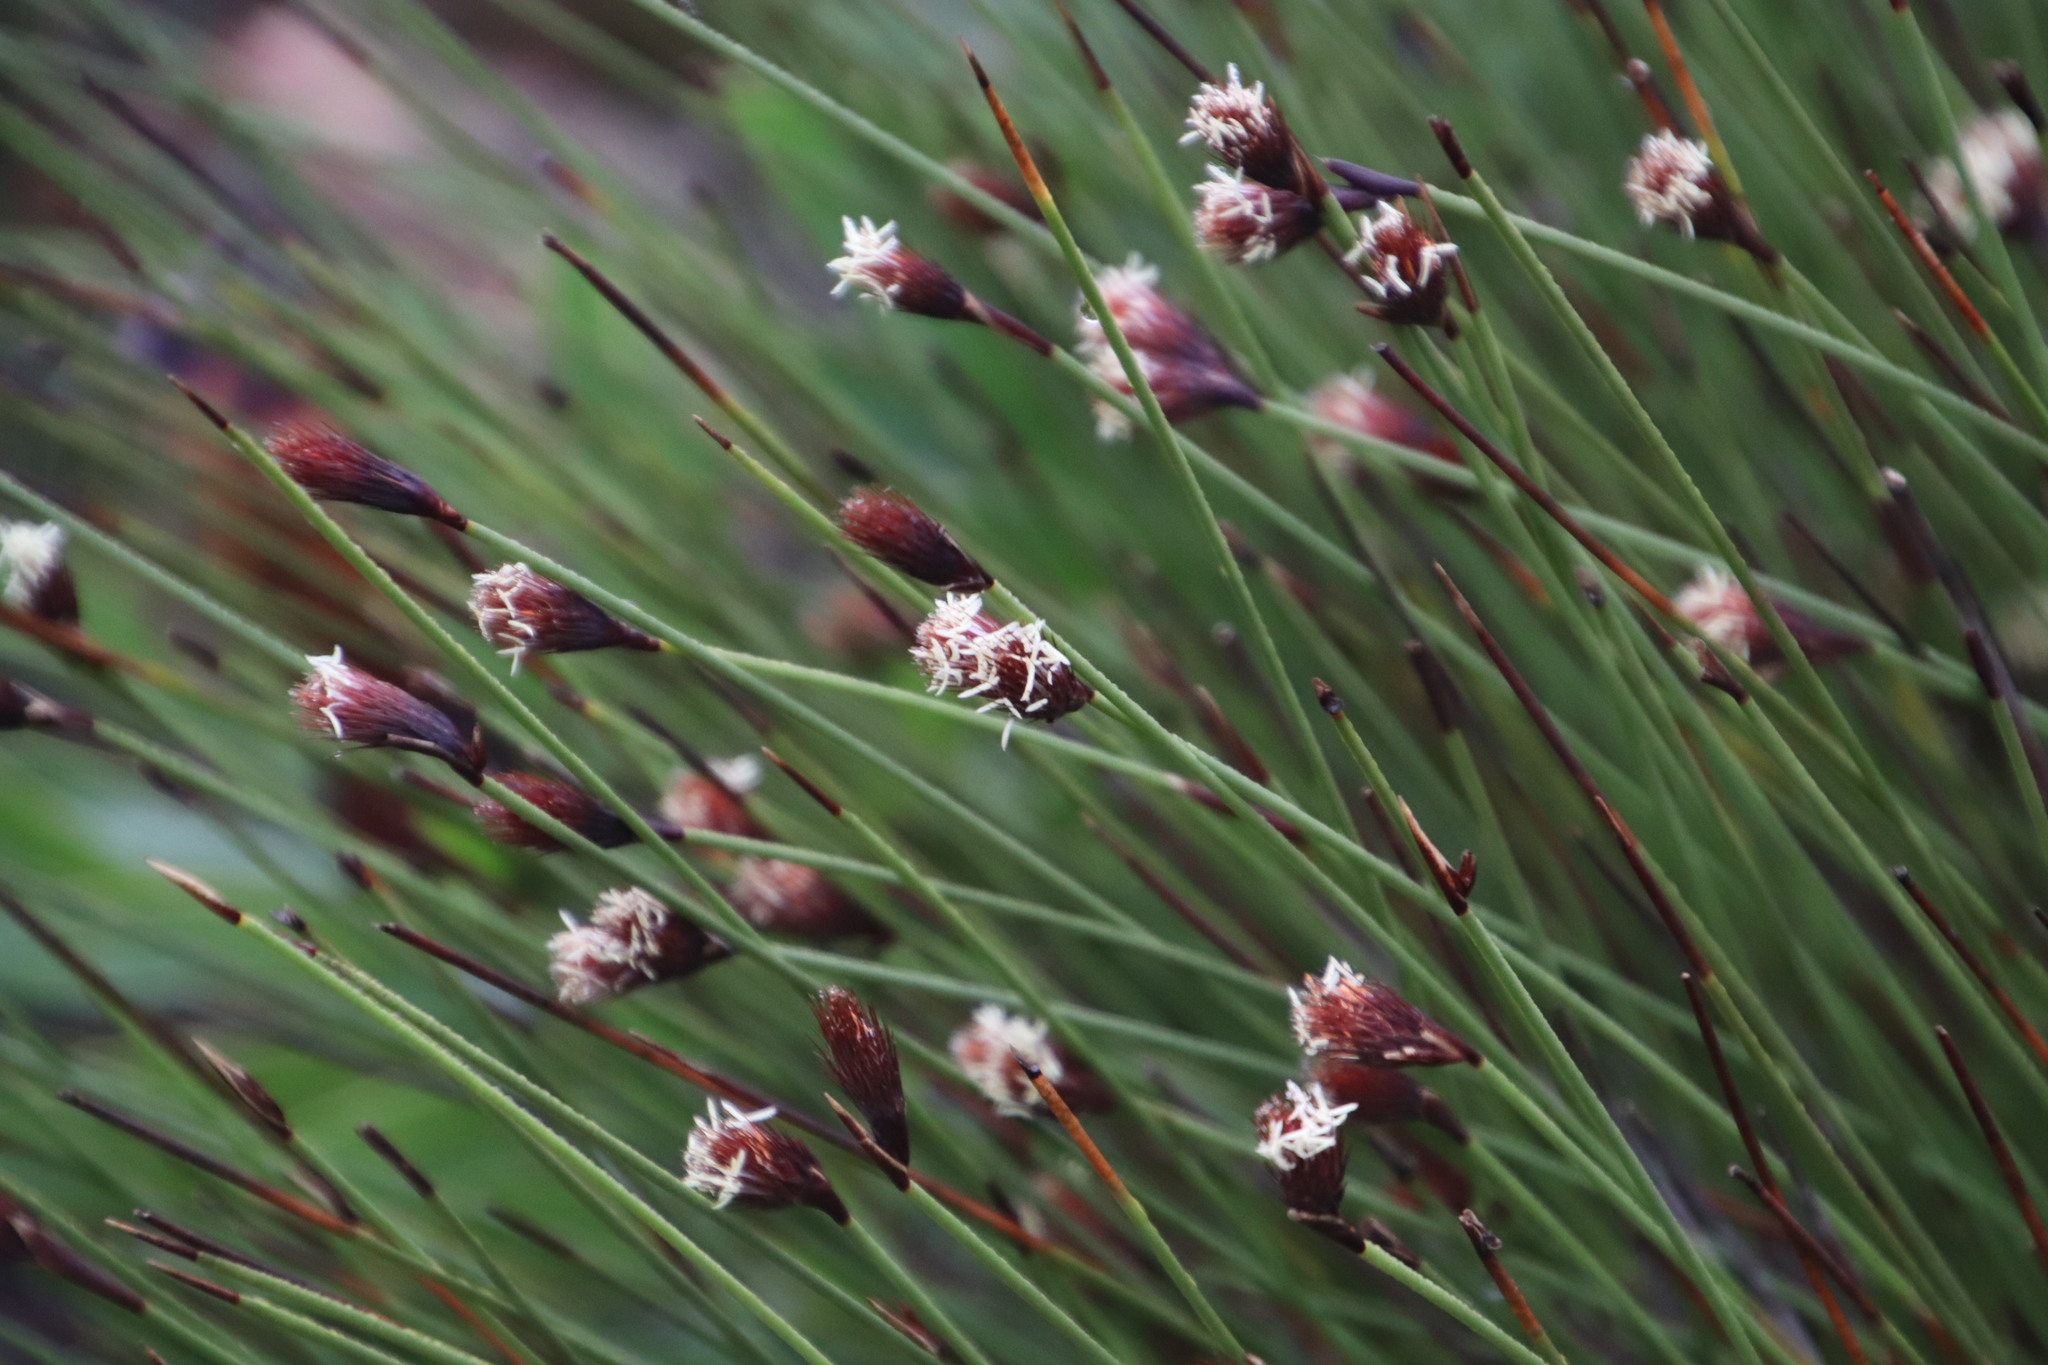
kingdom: Plantae
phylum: Tracheophyta
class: Liliopsida
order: Poales
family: Restionaceae
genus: Hypodiscus
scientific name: Hypodiscus aristatus
